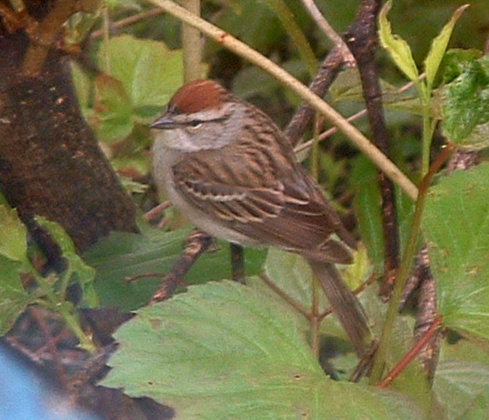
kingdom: Animalia
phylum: Chordata
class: Aves
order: Passeriformes
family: Passerellidae
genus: Spizella
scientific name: Spizella passerina
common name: Chipping sparrow
